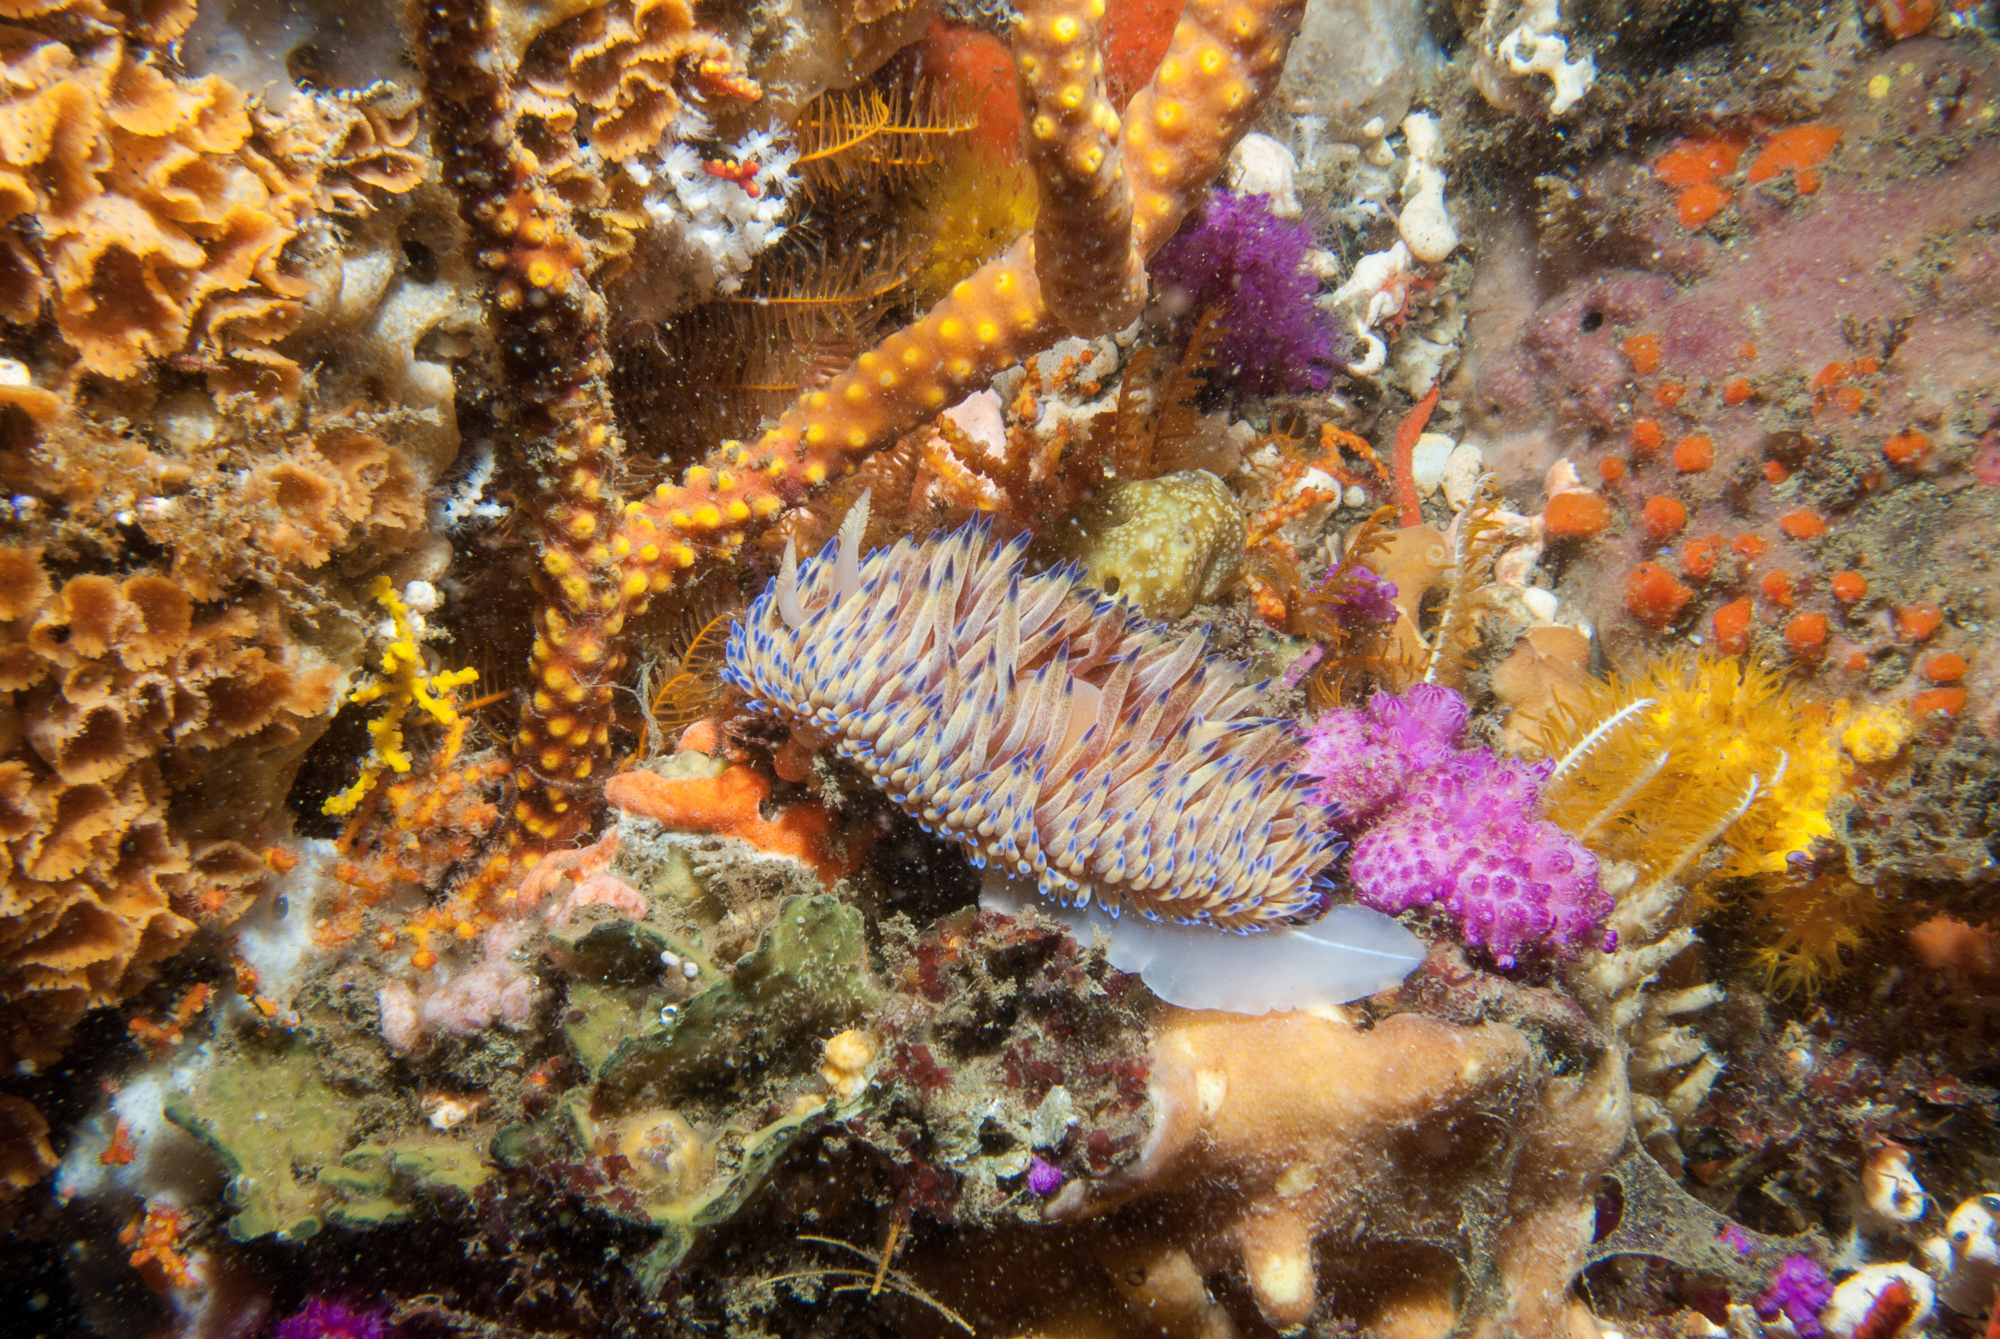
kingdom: Animalia
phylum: Mollusca
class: Gastropoda
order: Nudibranchia
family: Janolidae
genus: Bonisa
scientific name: Bonisa nakaza
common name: Gas flame nudibranch
